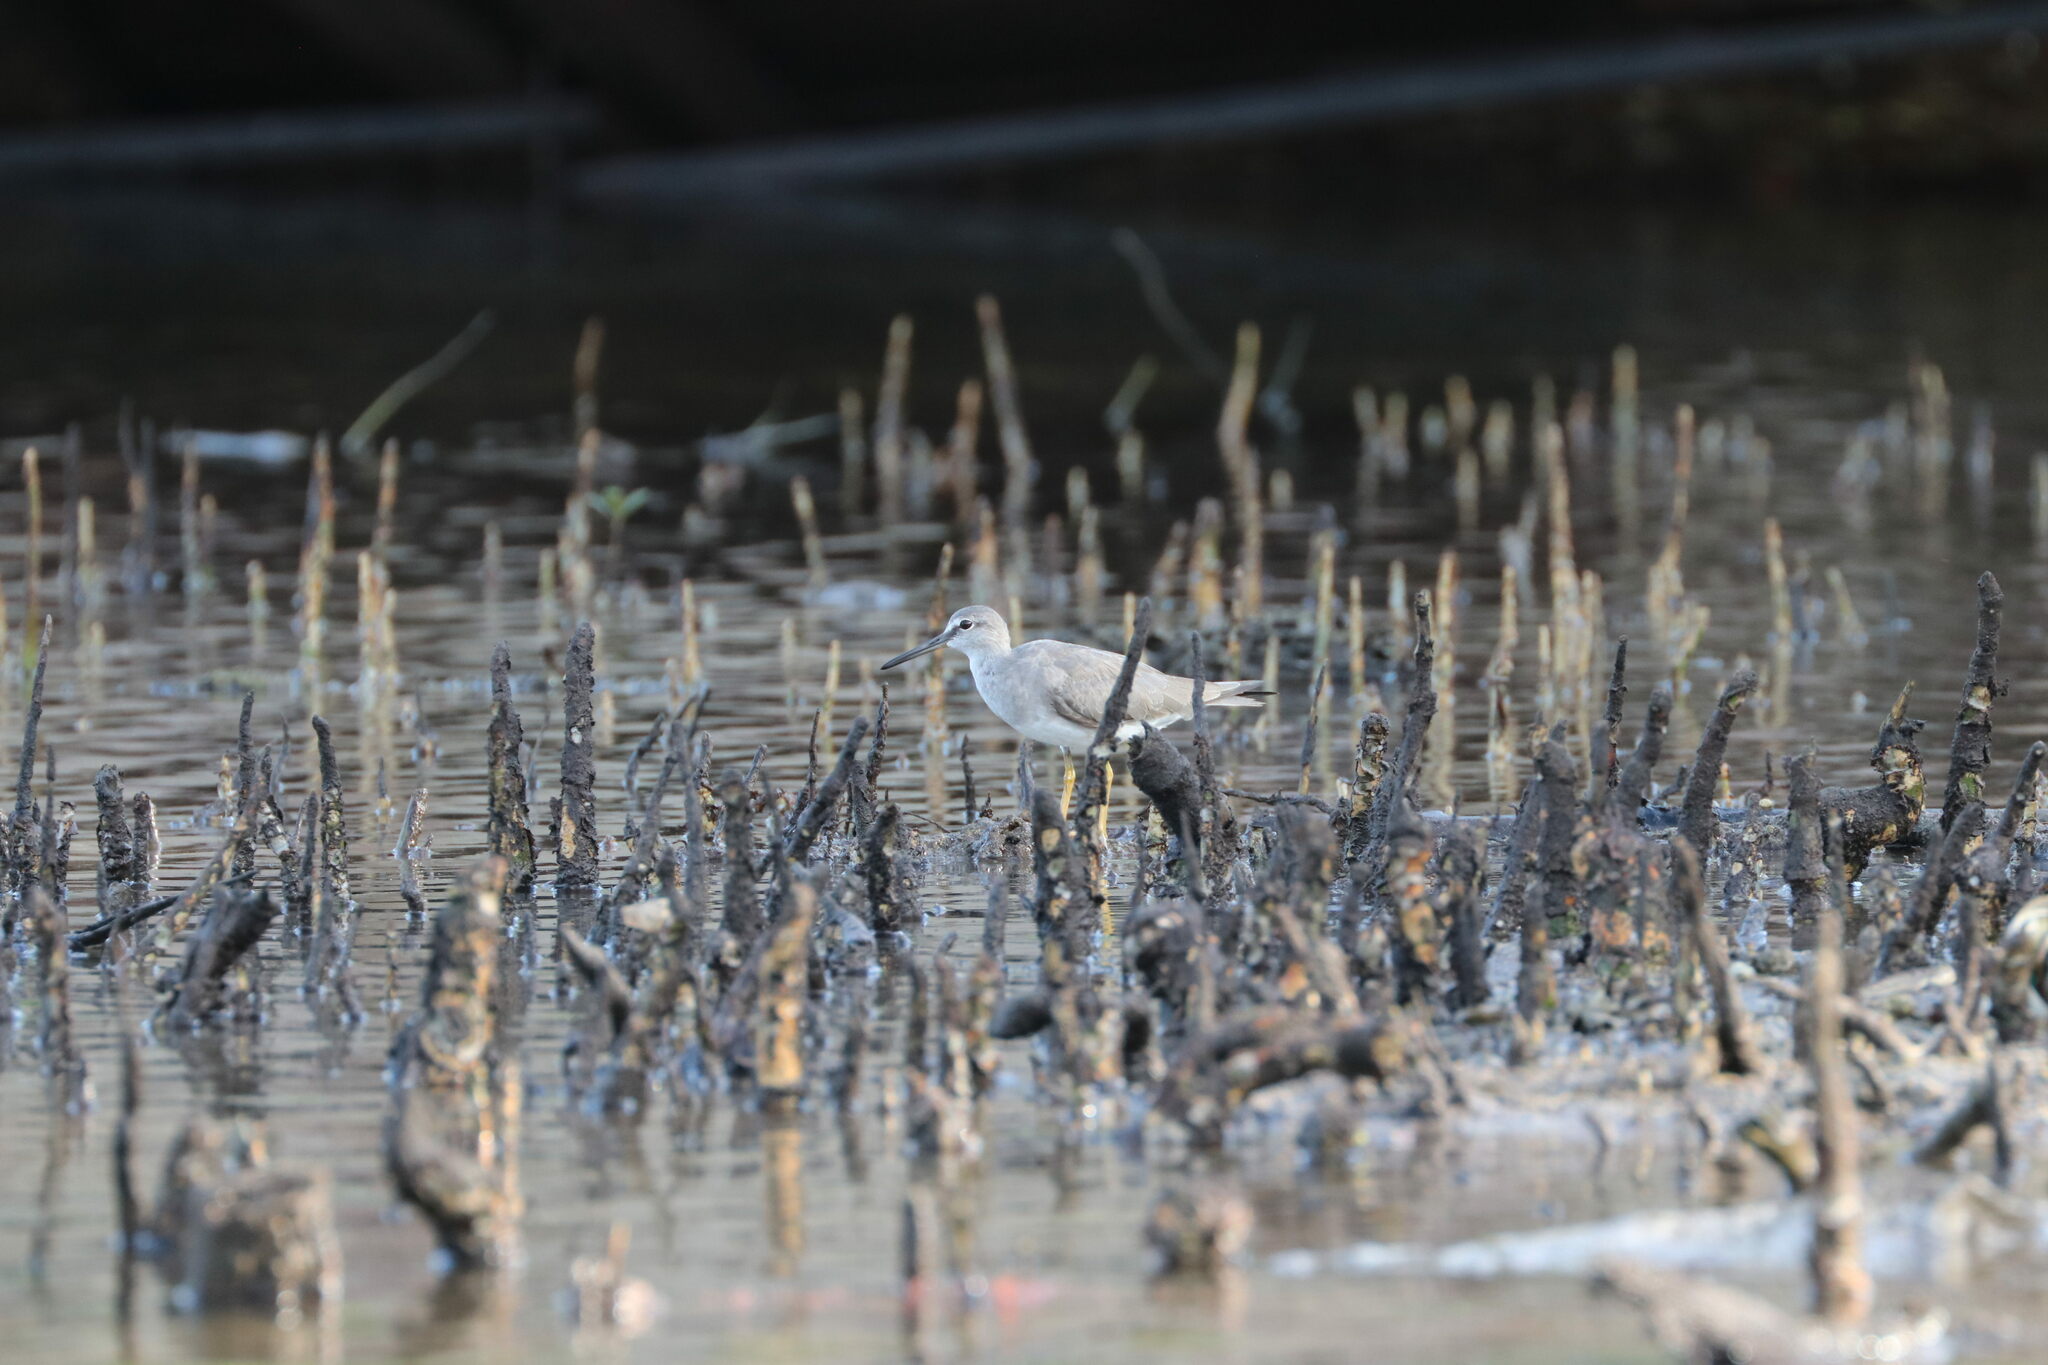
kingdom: Animalia
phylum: Chordata
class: Aves
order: Charadriiformes
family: Scolopacidae
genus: Tringa
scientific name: Tringa brevipes
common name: Grey-tailed tattler
